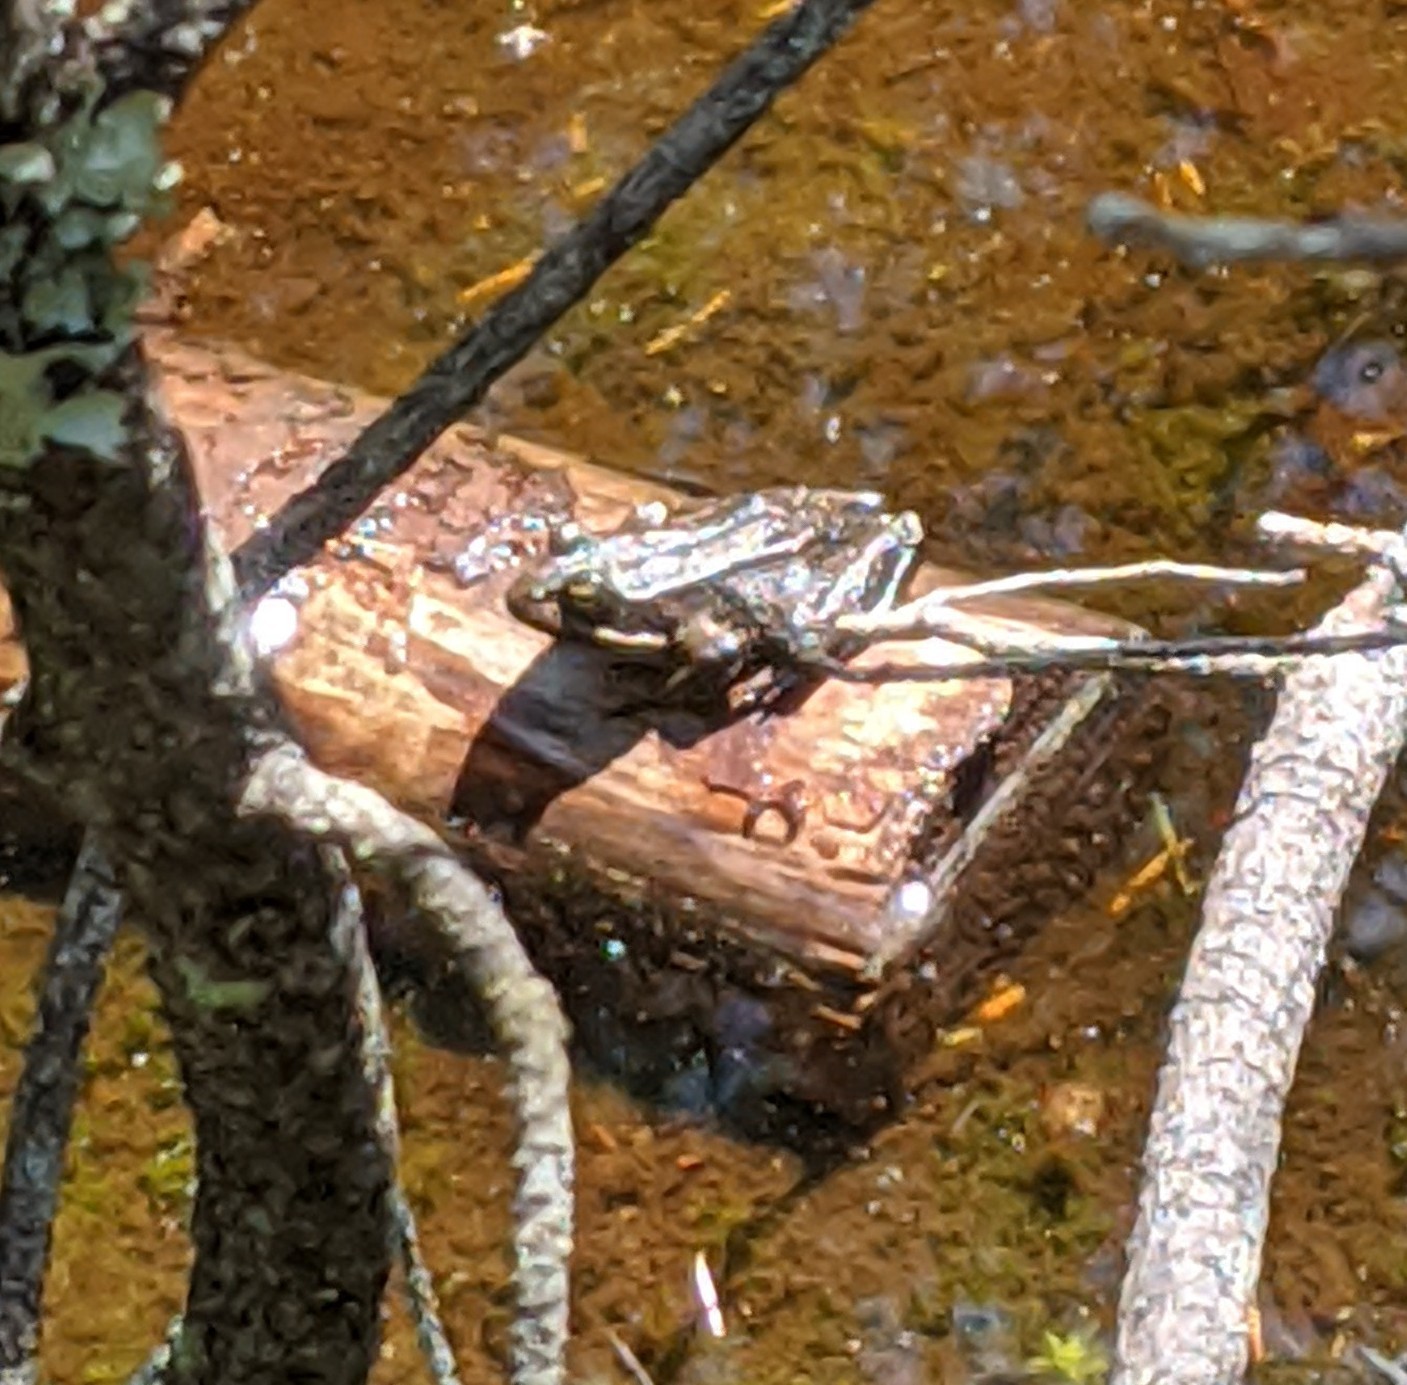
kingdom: Animalia
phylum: Chordata
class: Amphibia
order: Anura
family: Ranidae
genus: Rana
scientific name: Rana aurora
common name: Red-legged frog
